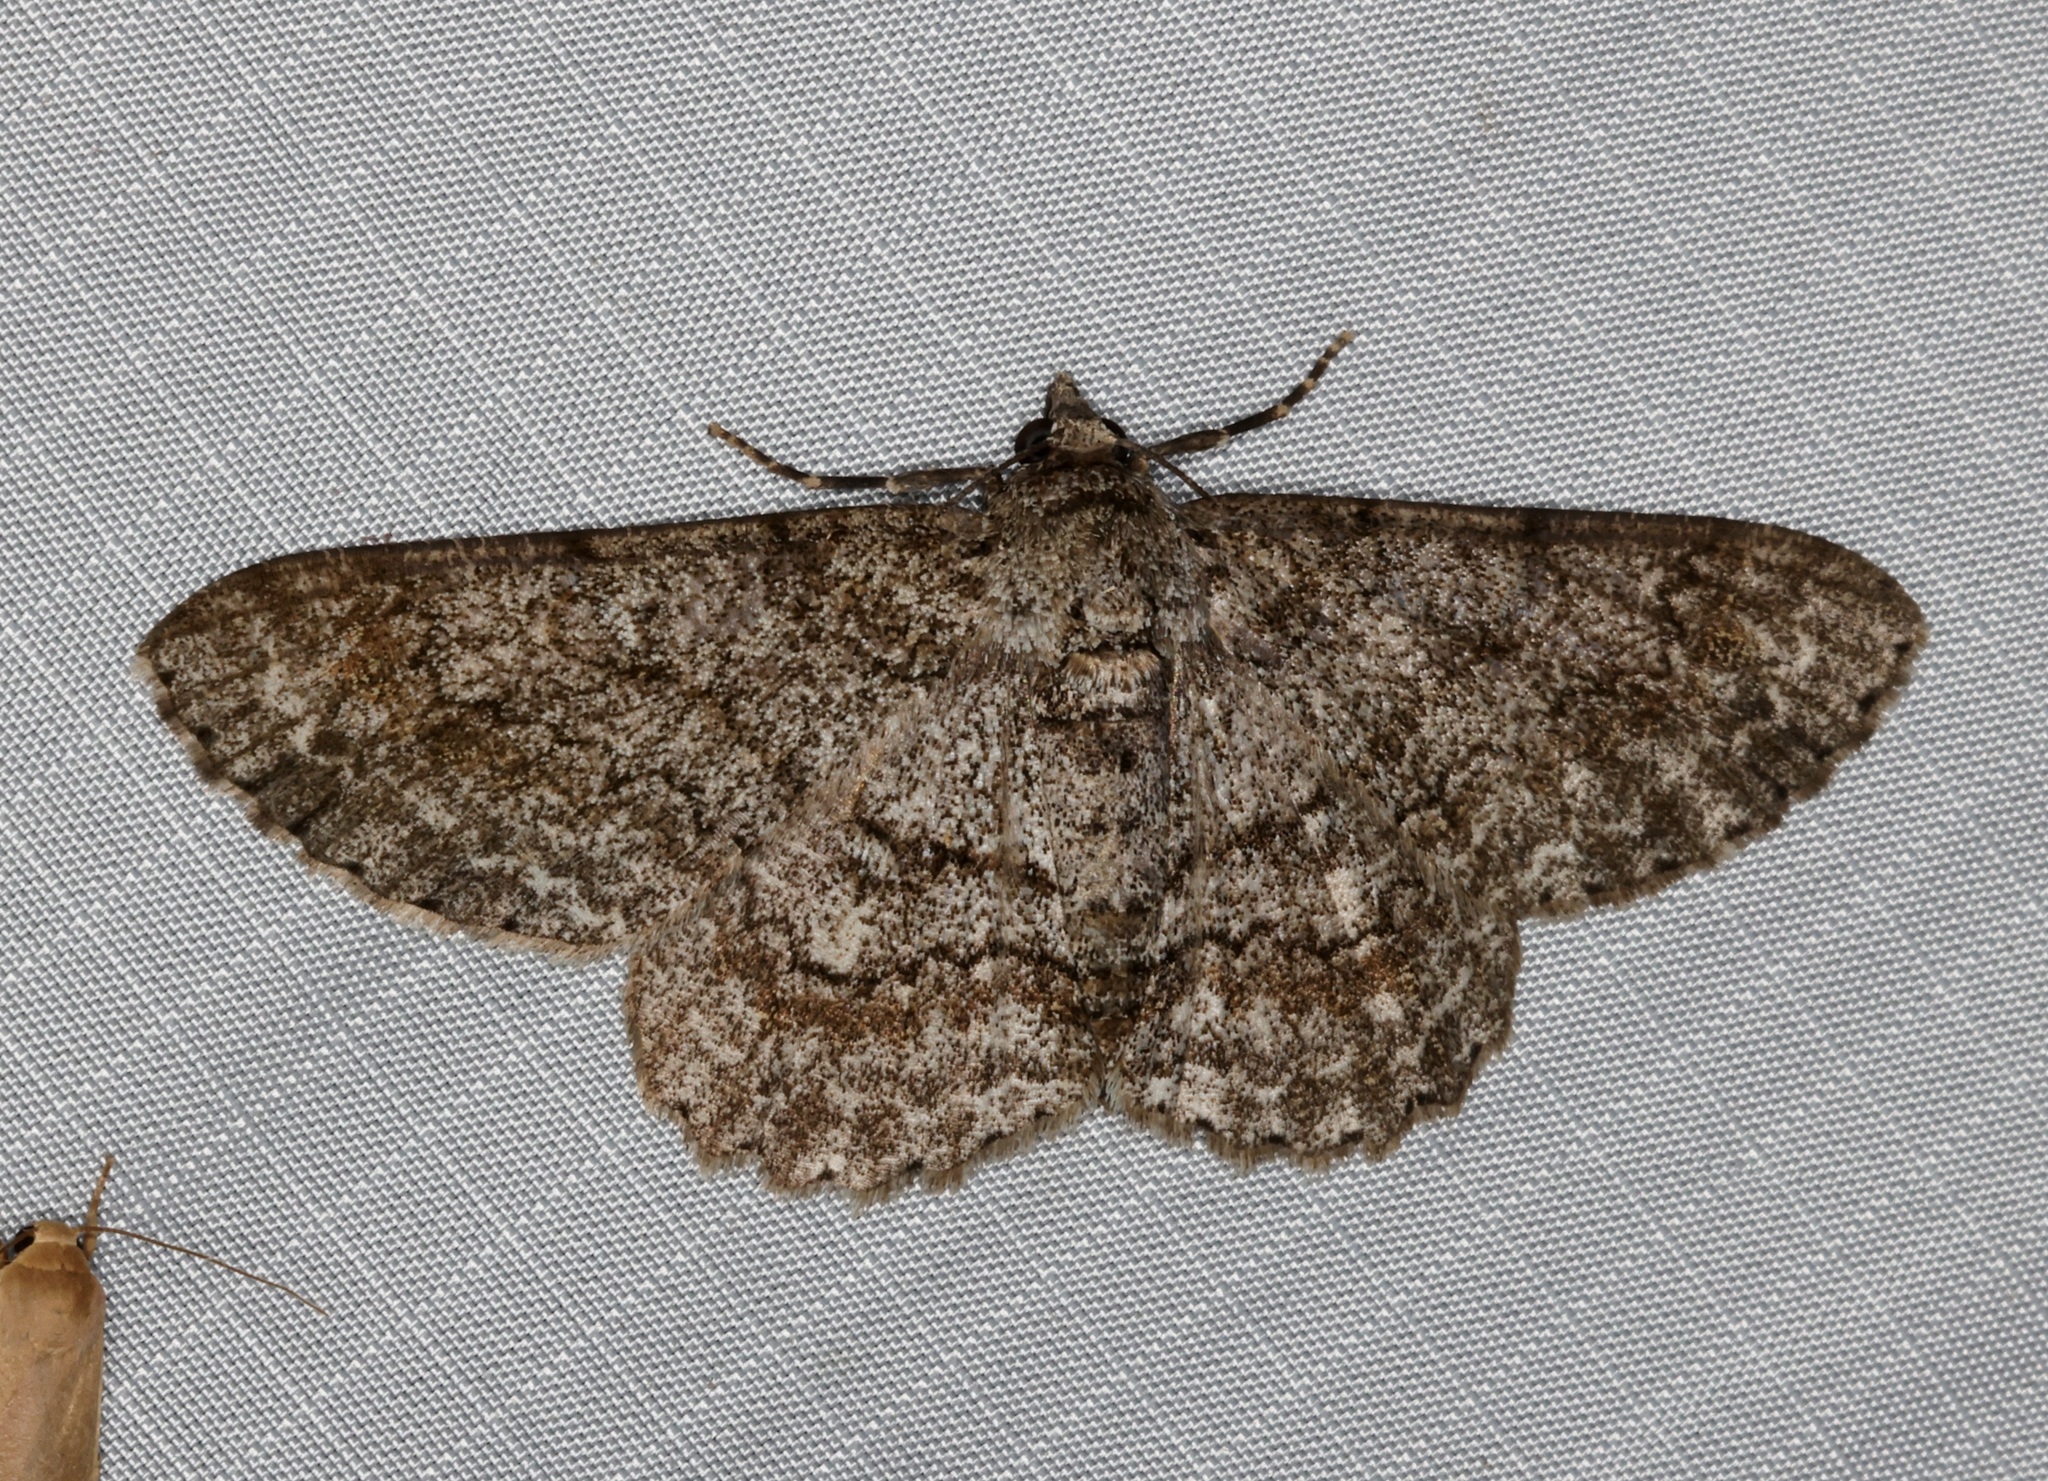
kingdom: Animalia
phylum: Arthropoda
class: Insecta
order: Lepidoptera
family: Geometridae
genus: Cleora
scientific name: Cleora repulsaria
